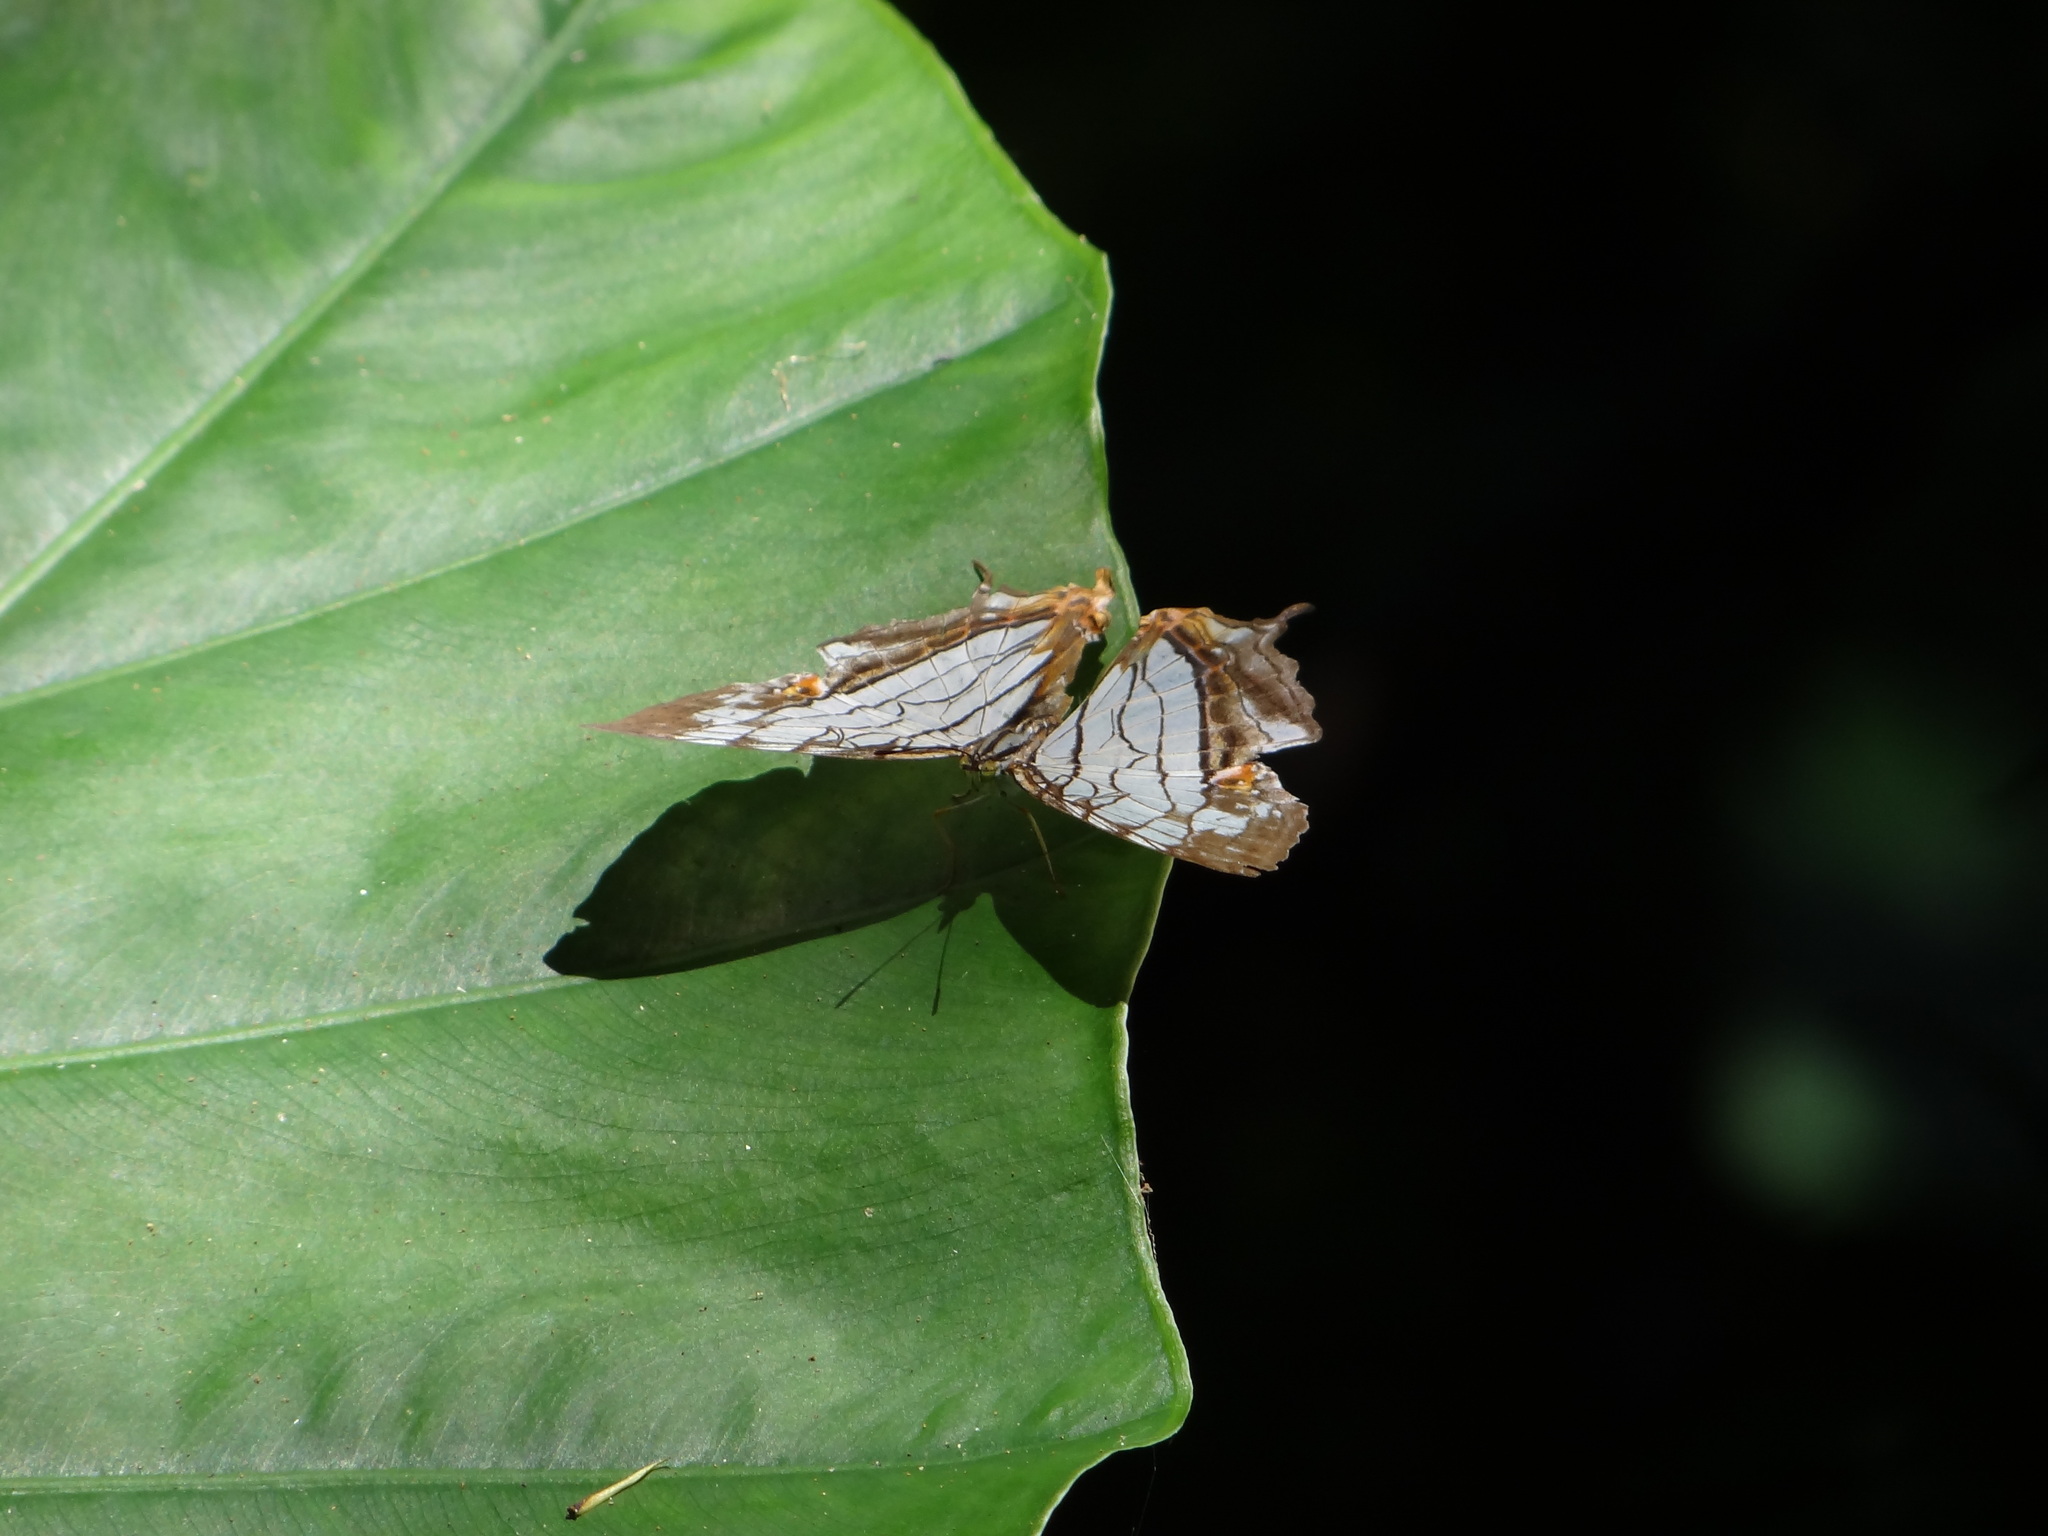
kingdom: Animalia
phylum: Arthropoda
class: Insecta
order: Lepidoptera
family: Nymphalidae
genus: Cyrestis
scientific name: Cyrestis thyodamas
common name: Common mapwing
